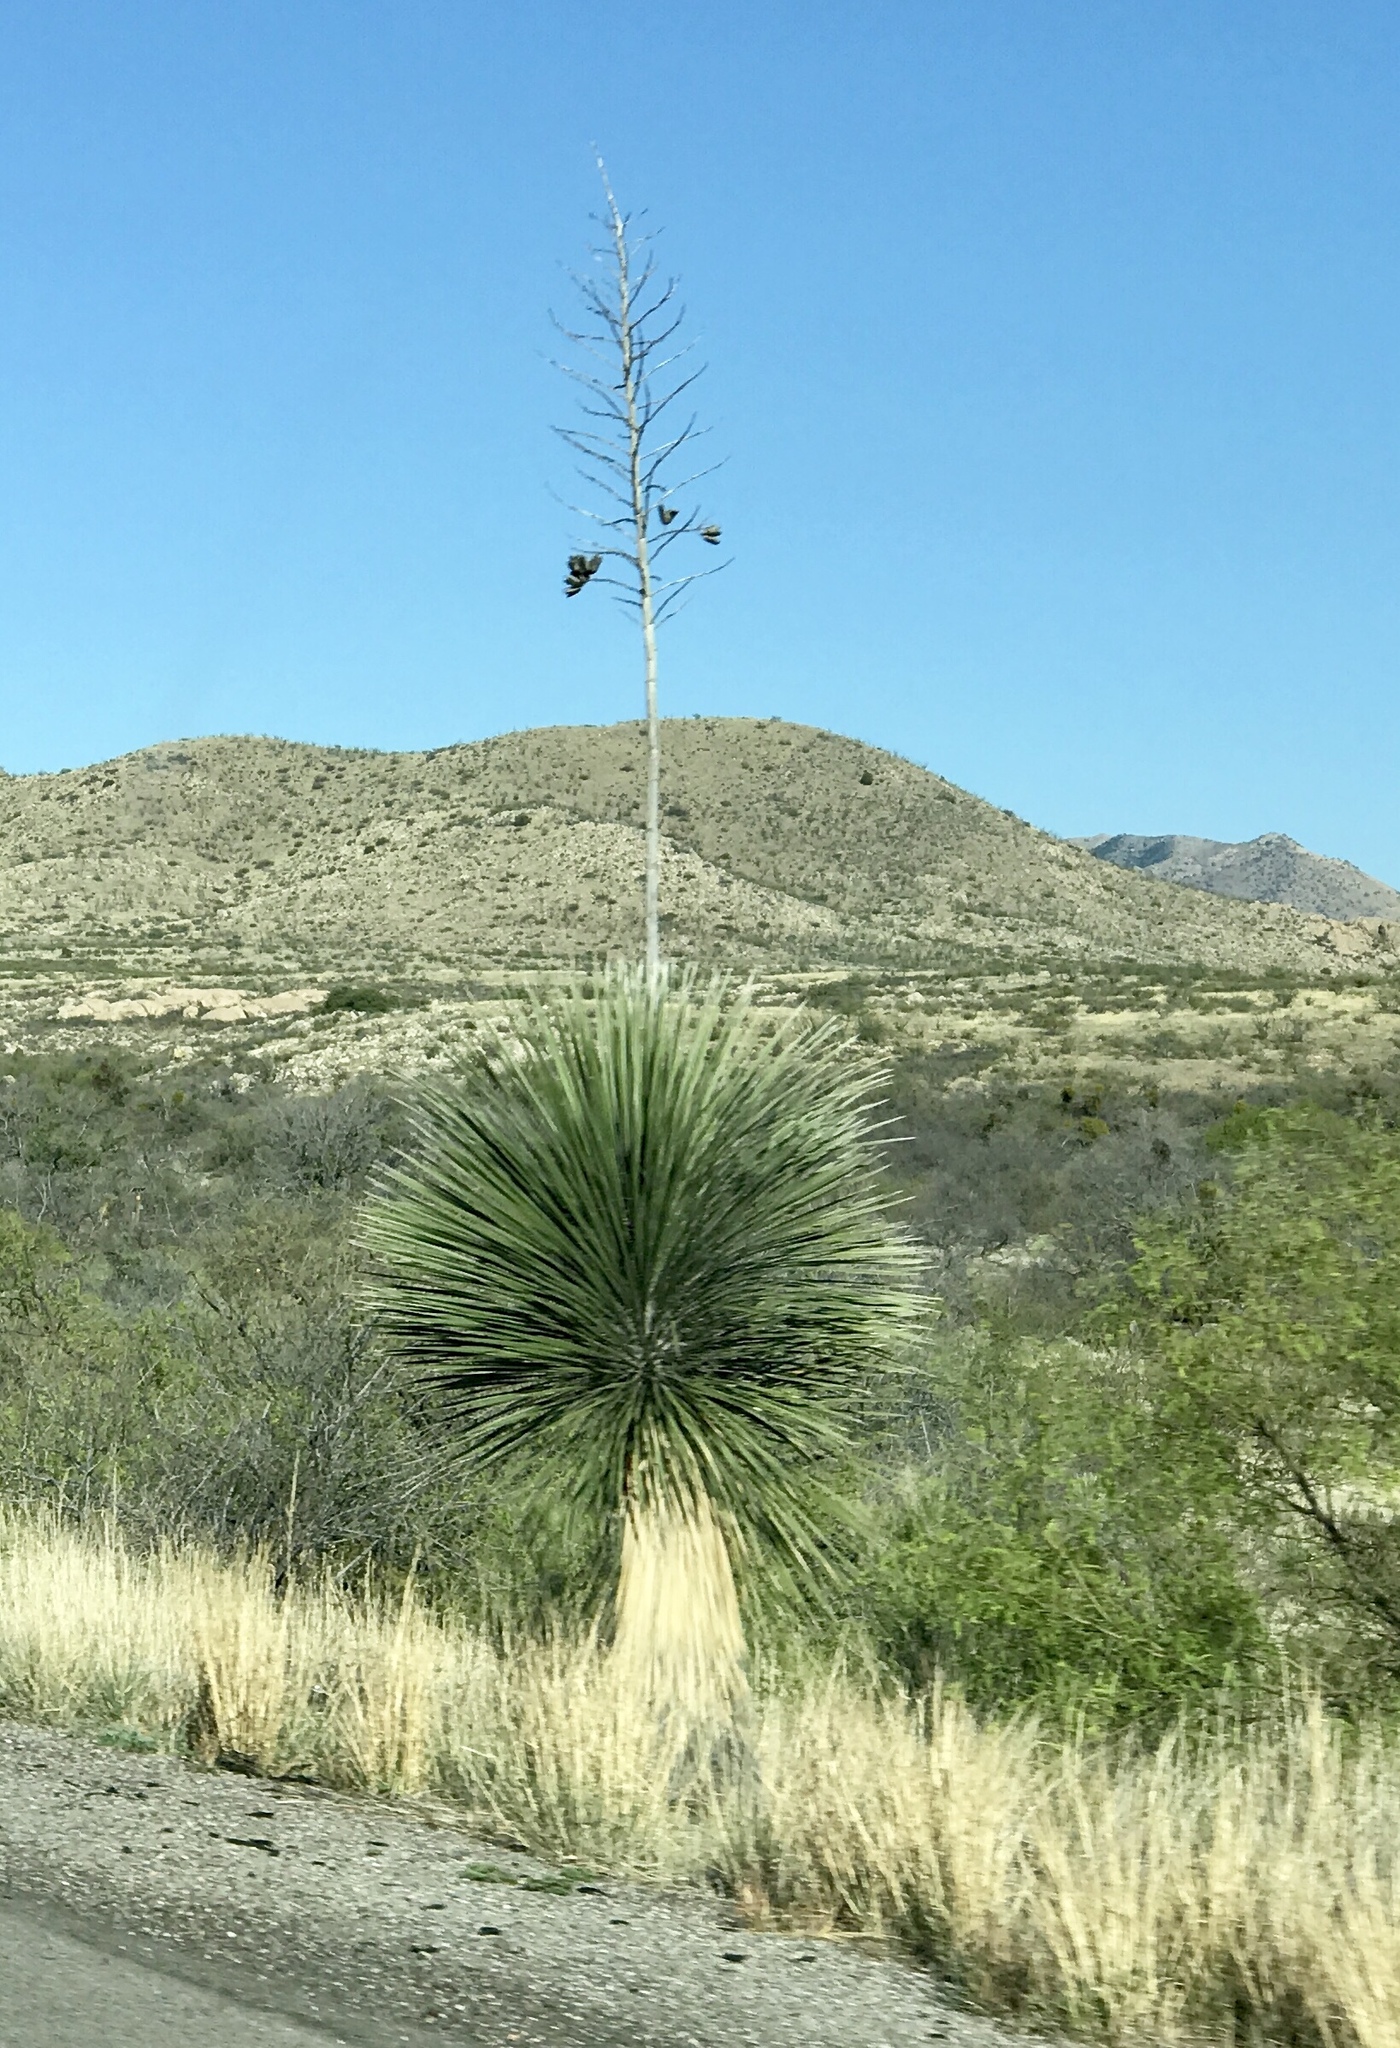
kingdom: Plantae
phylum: Tracheophyta
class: Liliopsida
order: Asparagales
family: Asparagaceae
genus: Yucca
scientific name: Yucca elata
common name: Palmella
